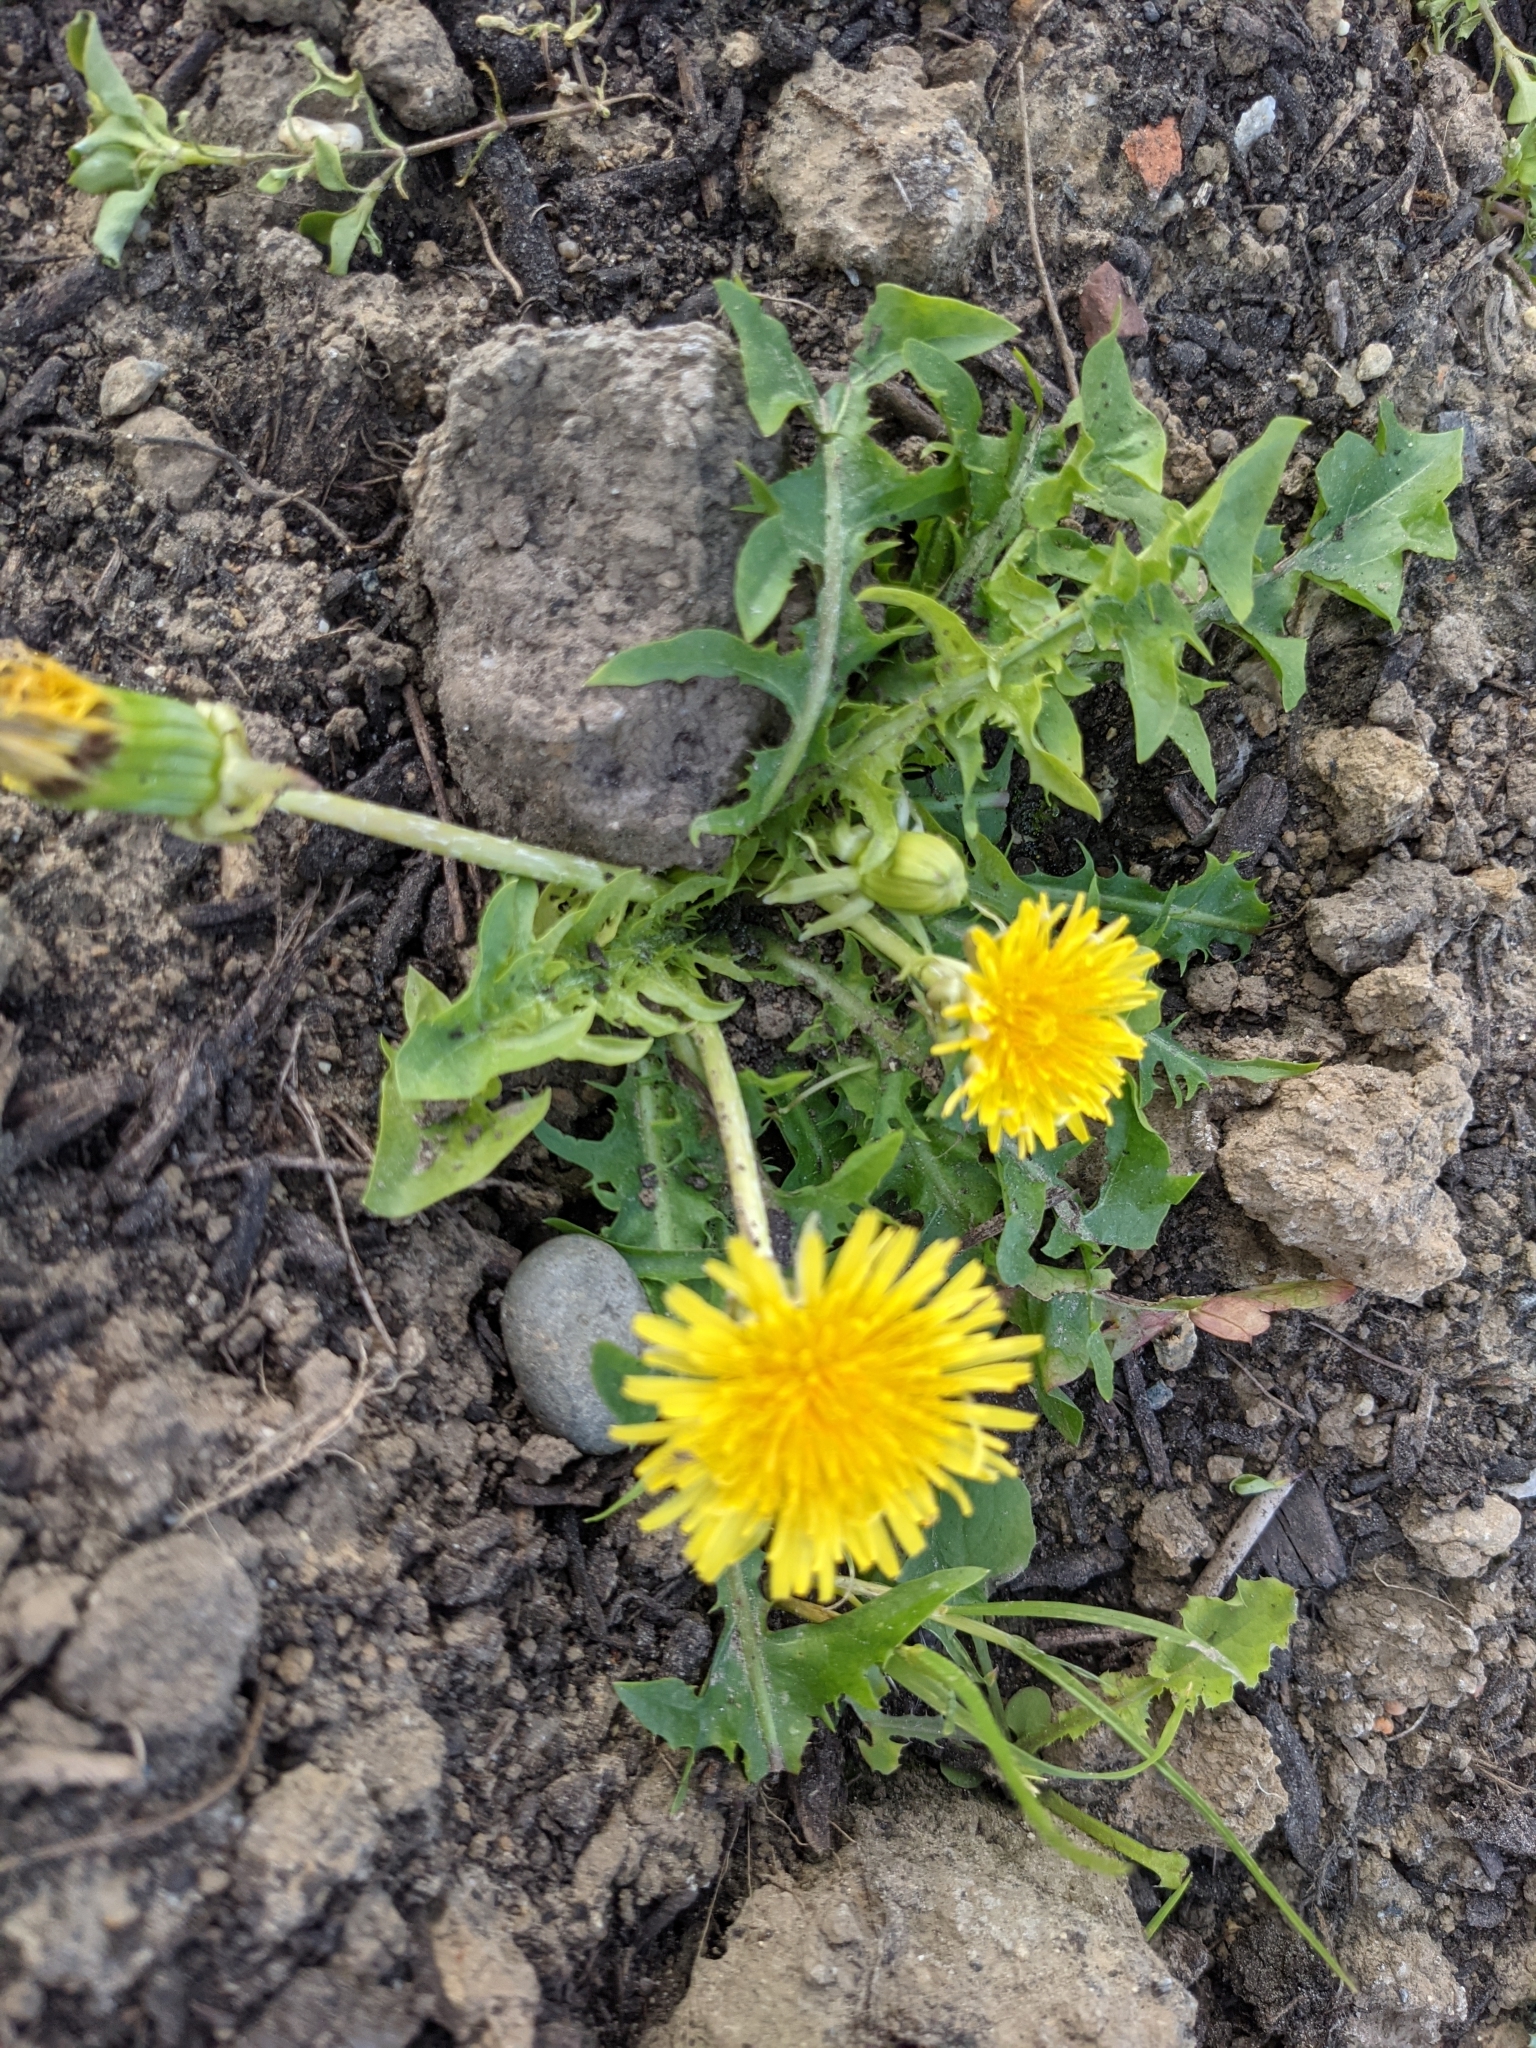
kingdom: Plantae
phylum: Tracheophyta
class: Magnoliopsida
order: Asterales
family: Asteraceae
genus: Taraxacum
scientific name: Taraxacum officinale
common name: Common dandelion
